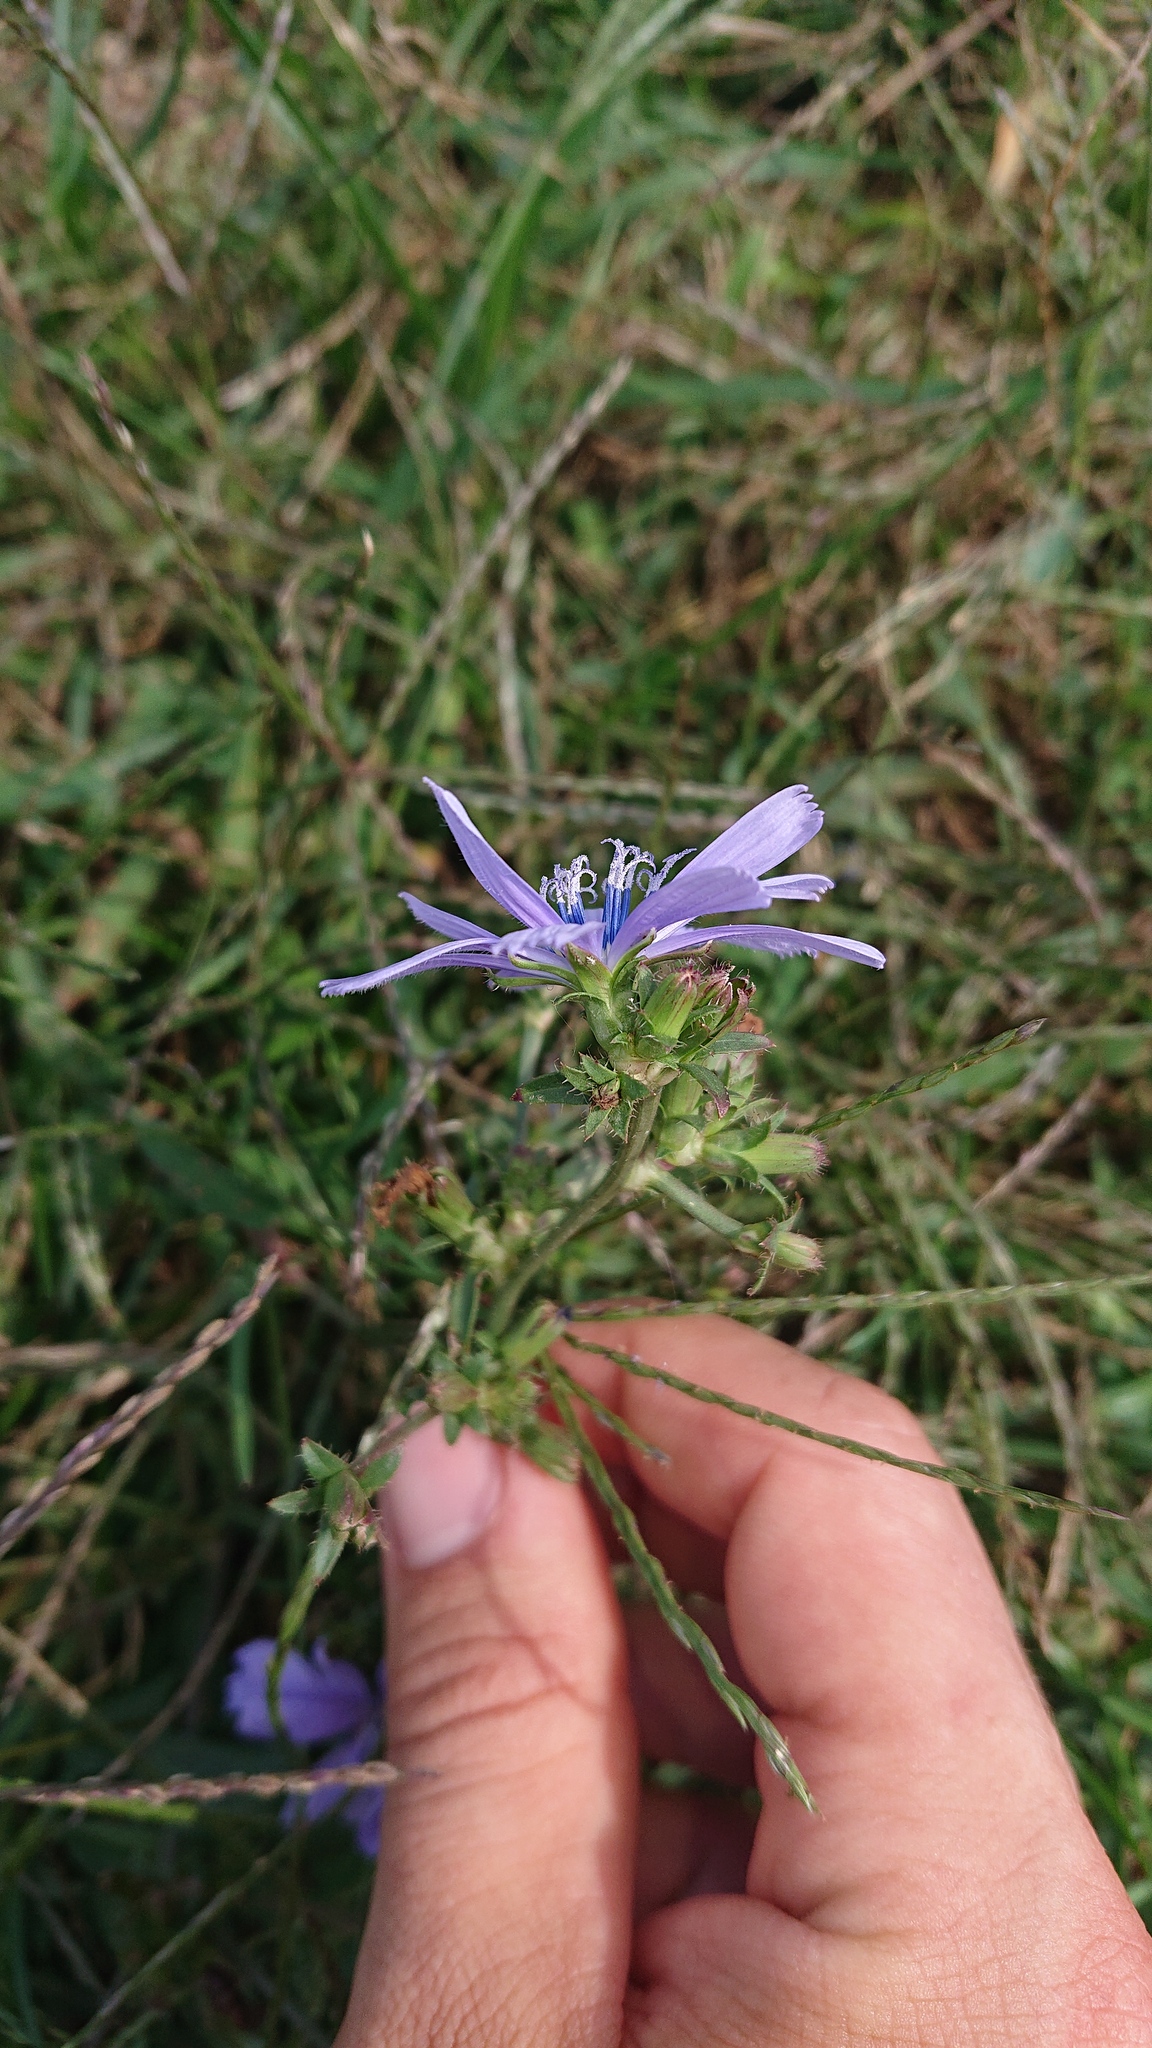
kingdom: Plantae
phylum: Tracheophyta
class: Magnoliopsida
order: Asterales
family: Asteraceae
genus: Cichorium
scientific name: Cichorium intybus
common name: Chicory
